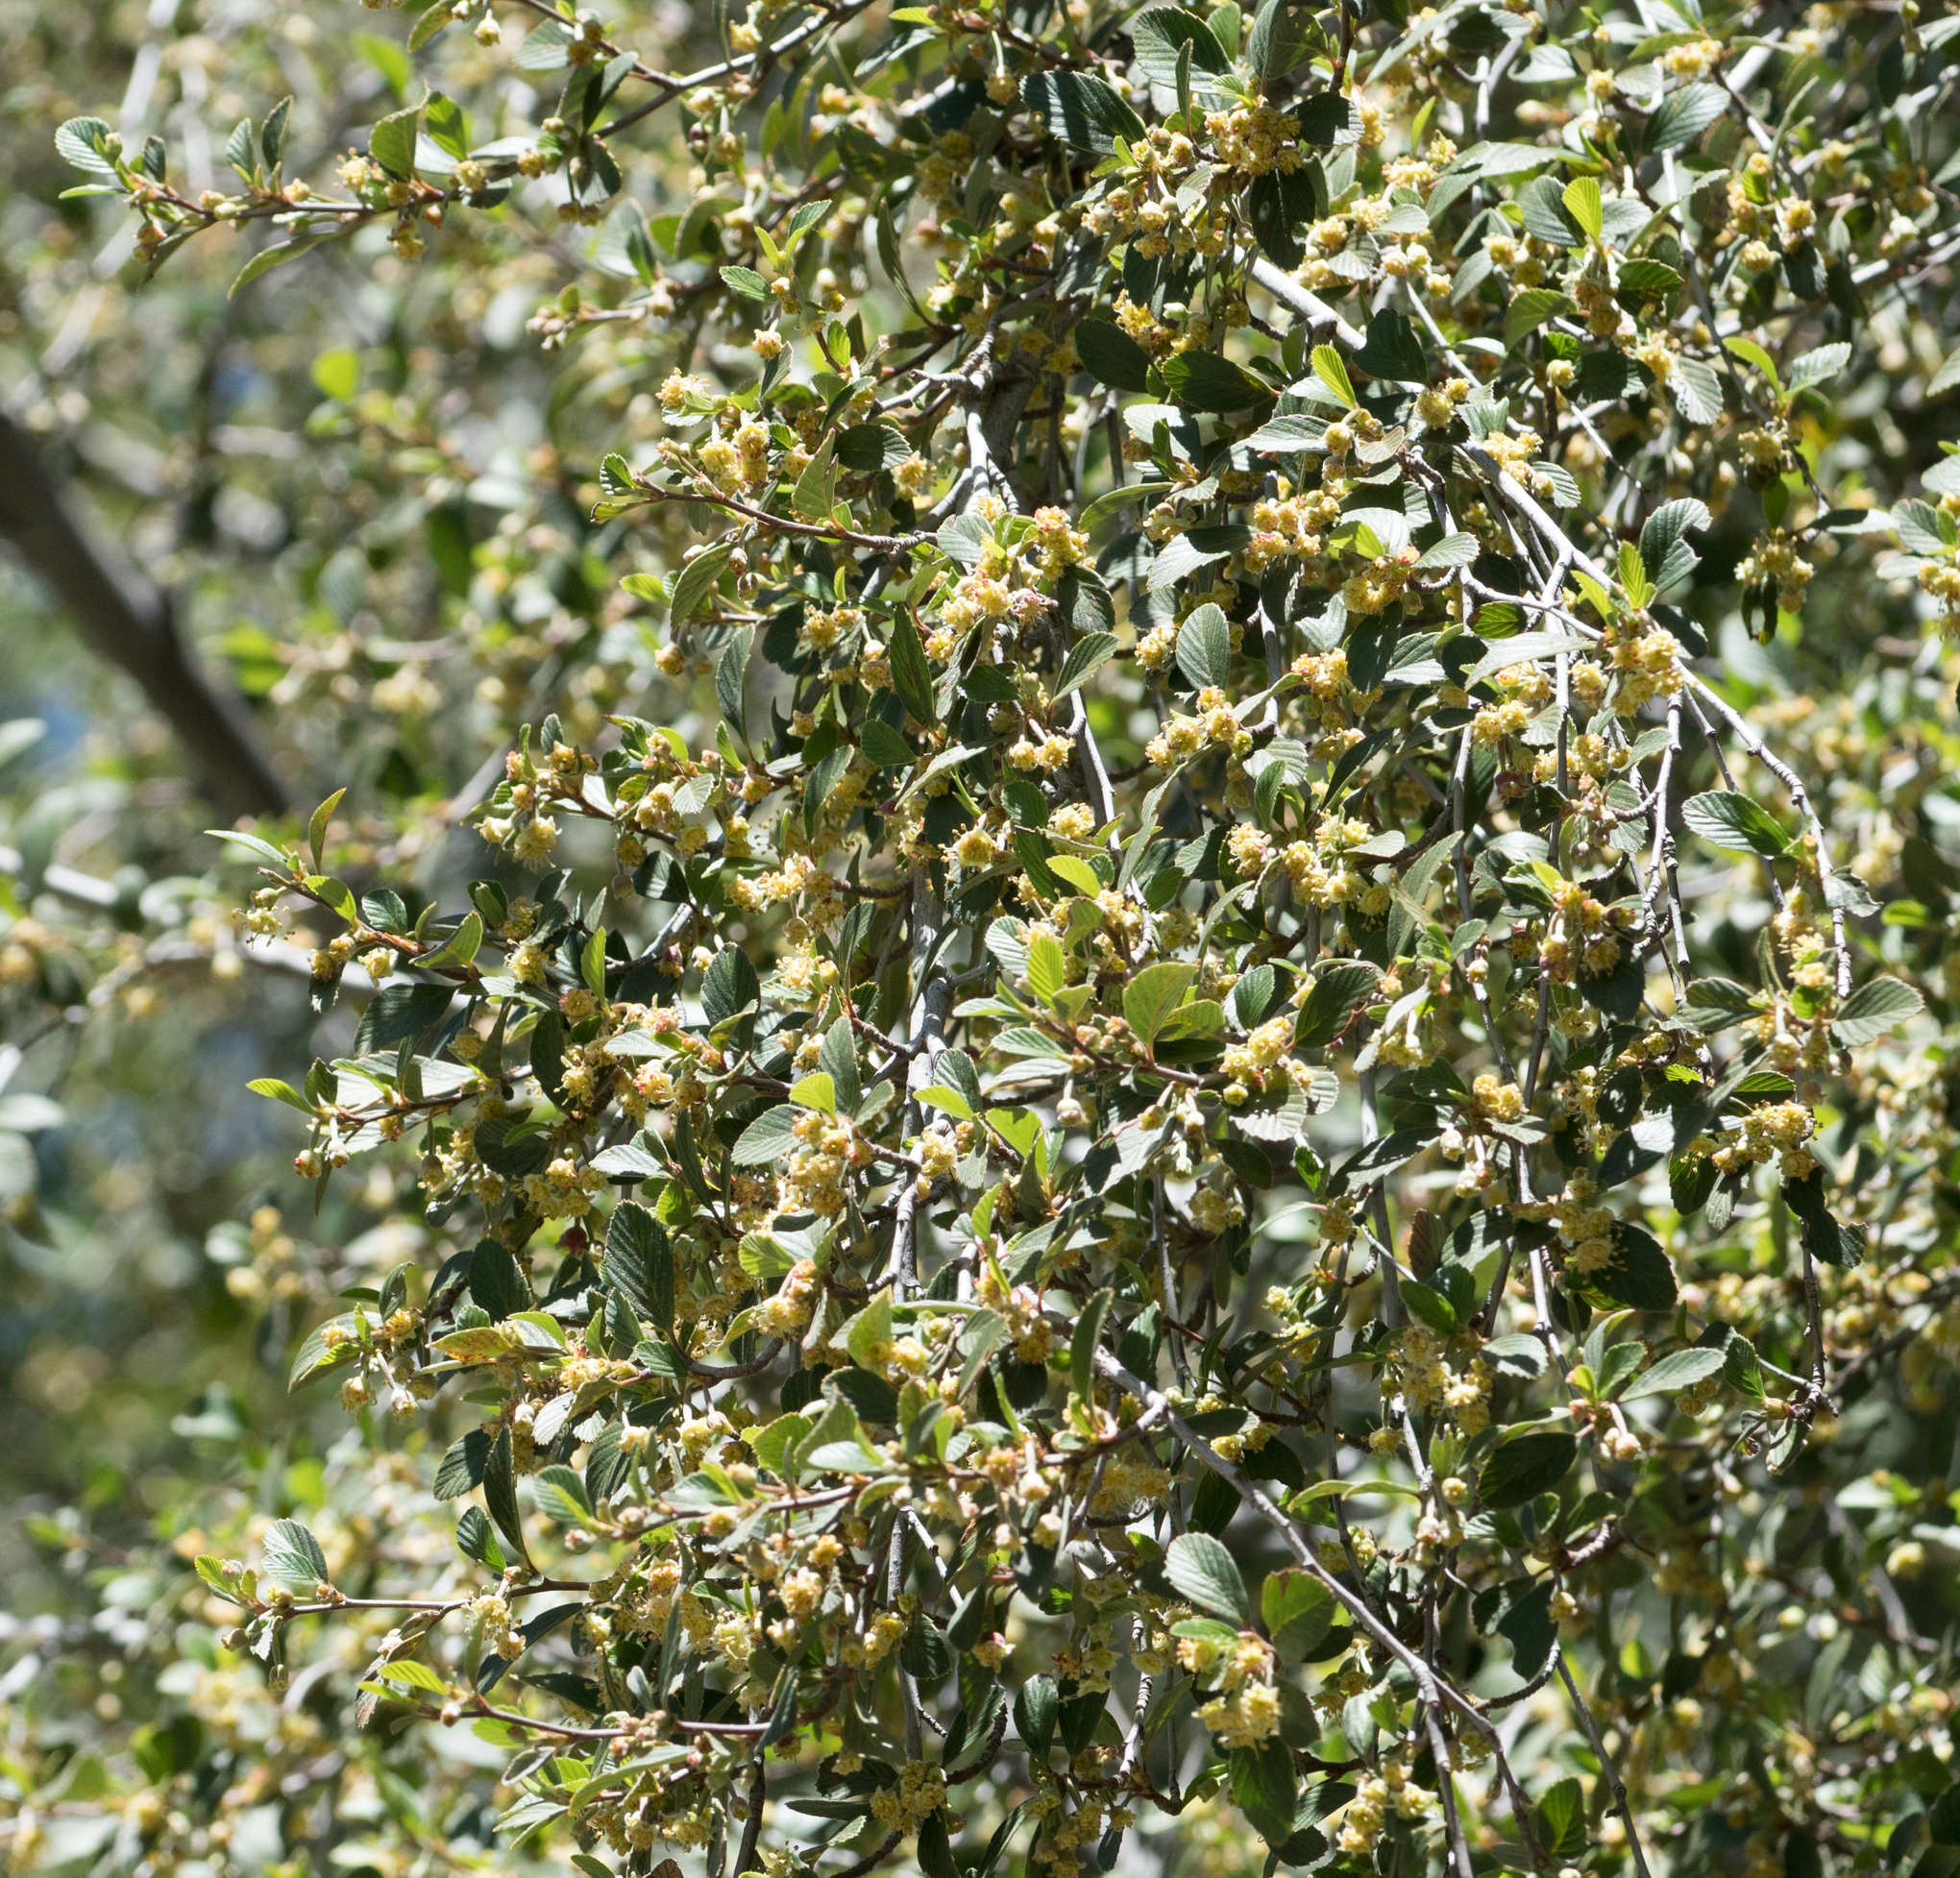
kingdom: Plantae
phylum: Tracheophyta
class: Magnoliopsida
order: Rosales
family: Rosaceae
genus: Cercocarpus
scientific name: Cercocarpus betuloides
